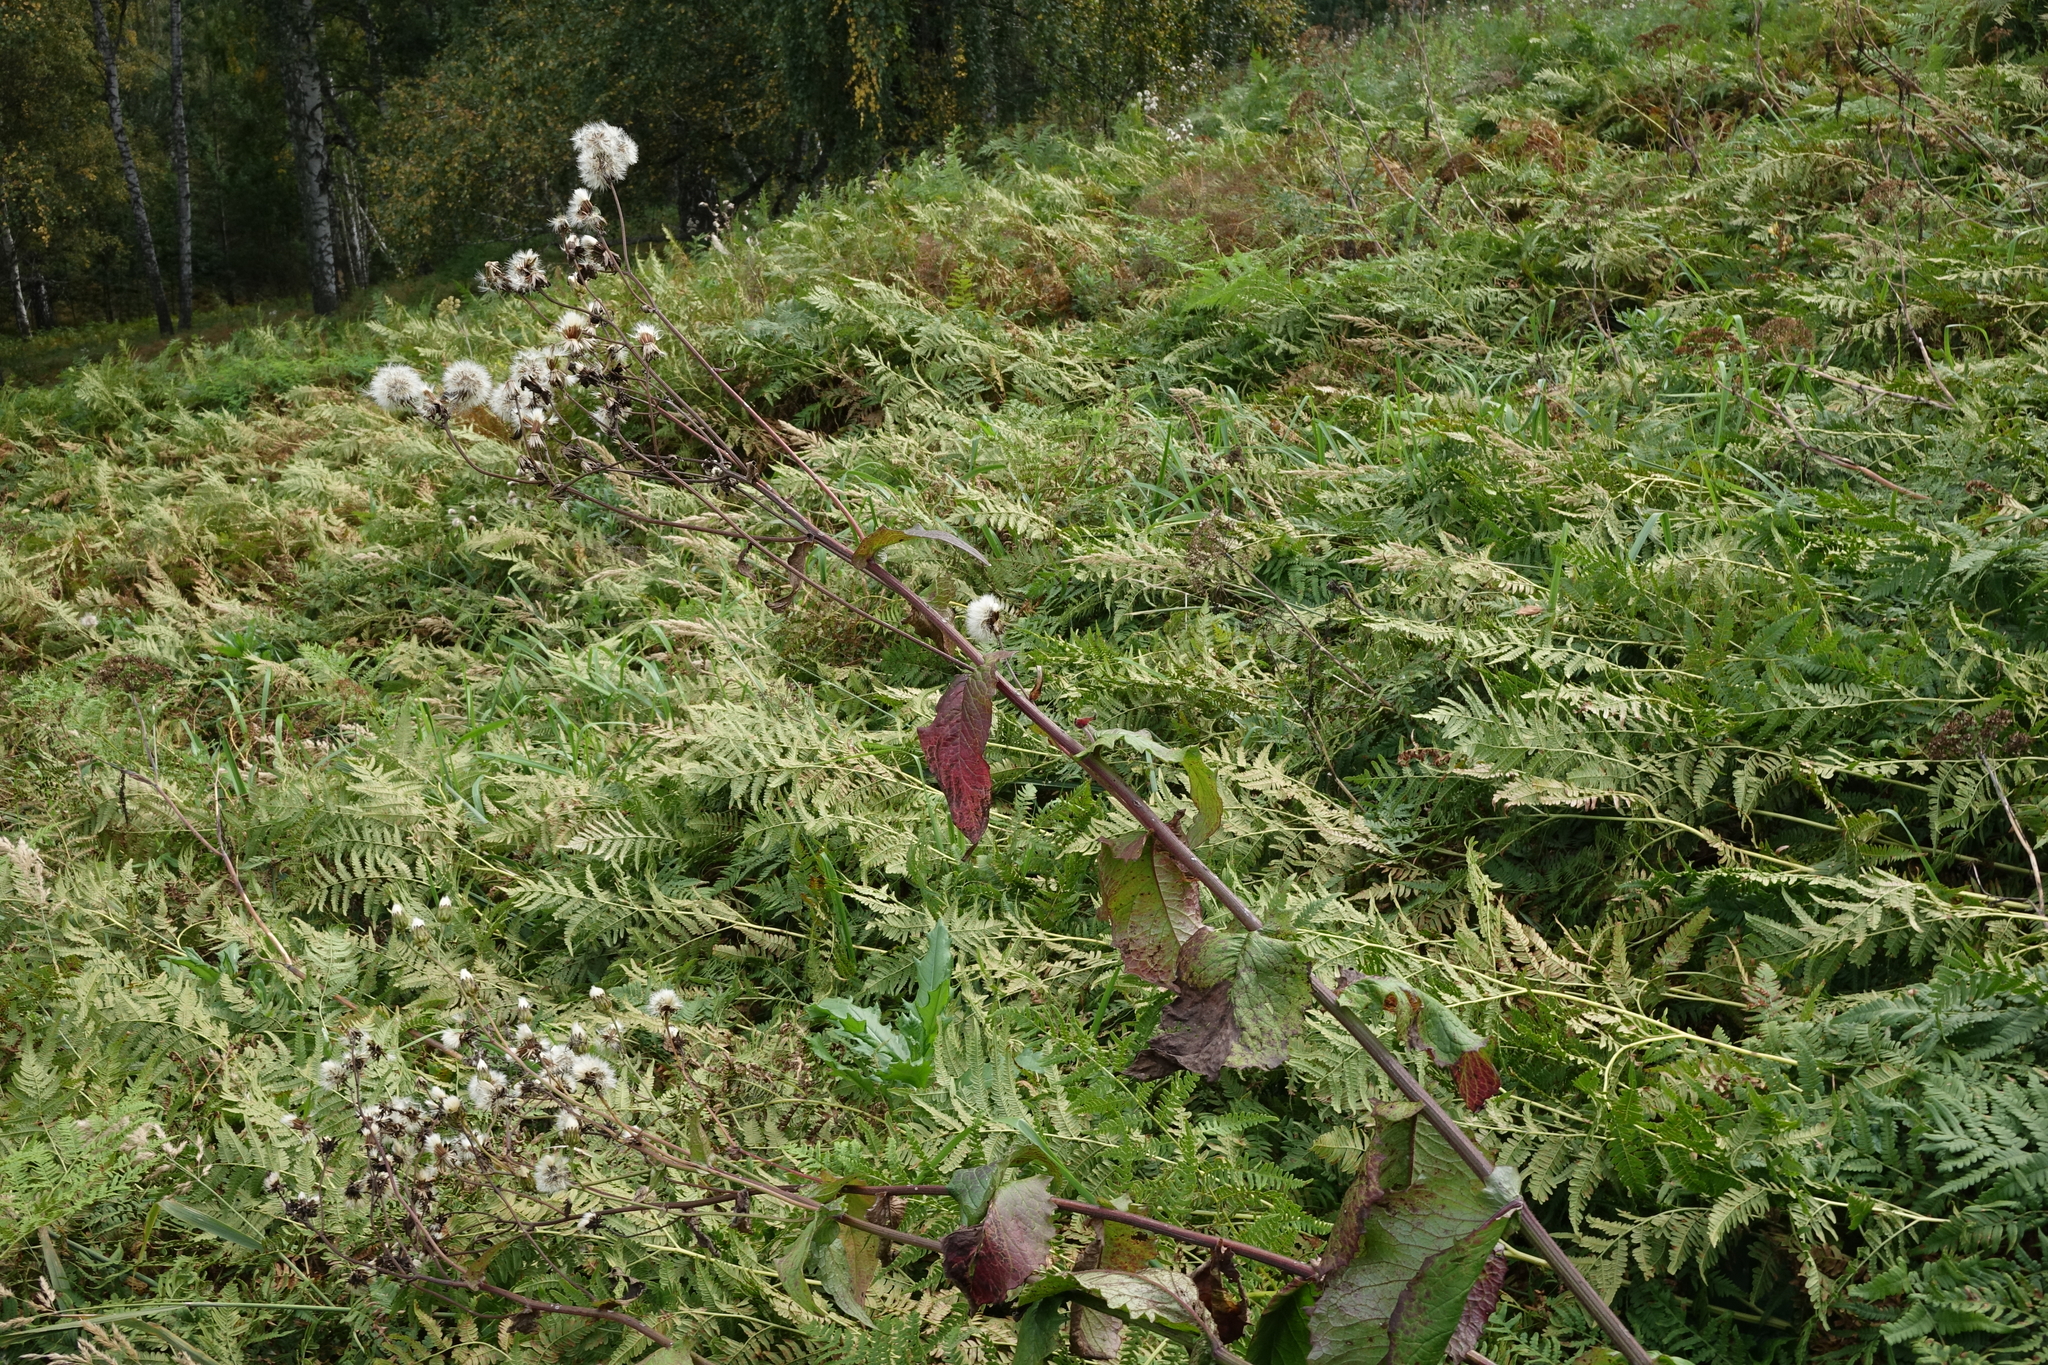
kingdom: Plantae
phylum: Tracheophyta
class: Magnoliopsida
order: Asterales
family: Asteraceae
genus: Crepis
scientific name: Crepis sibirica
